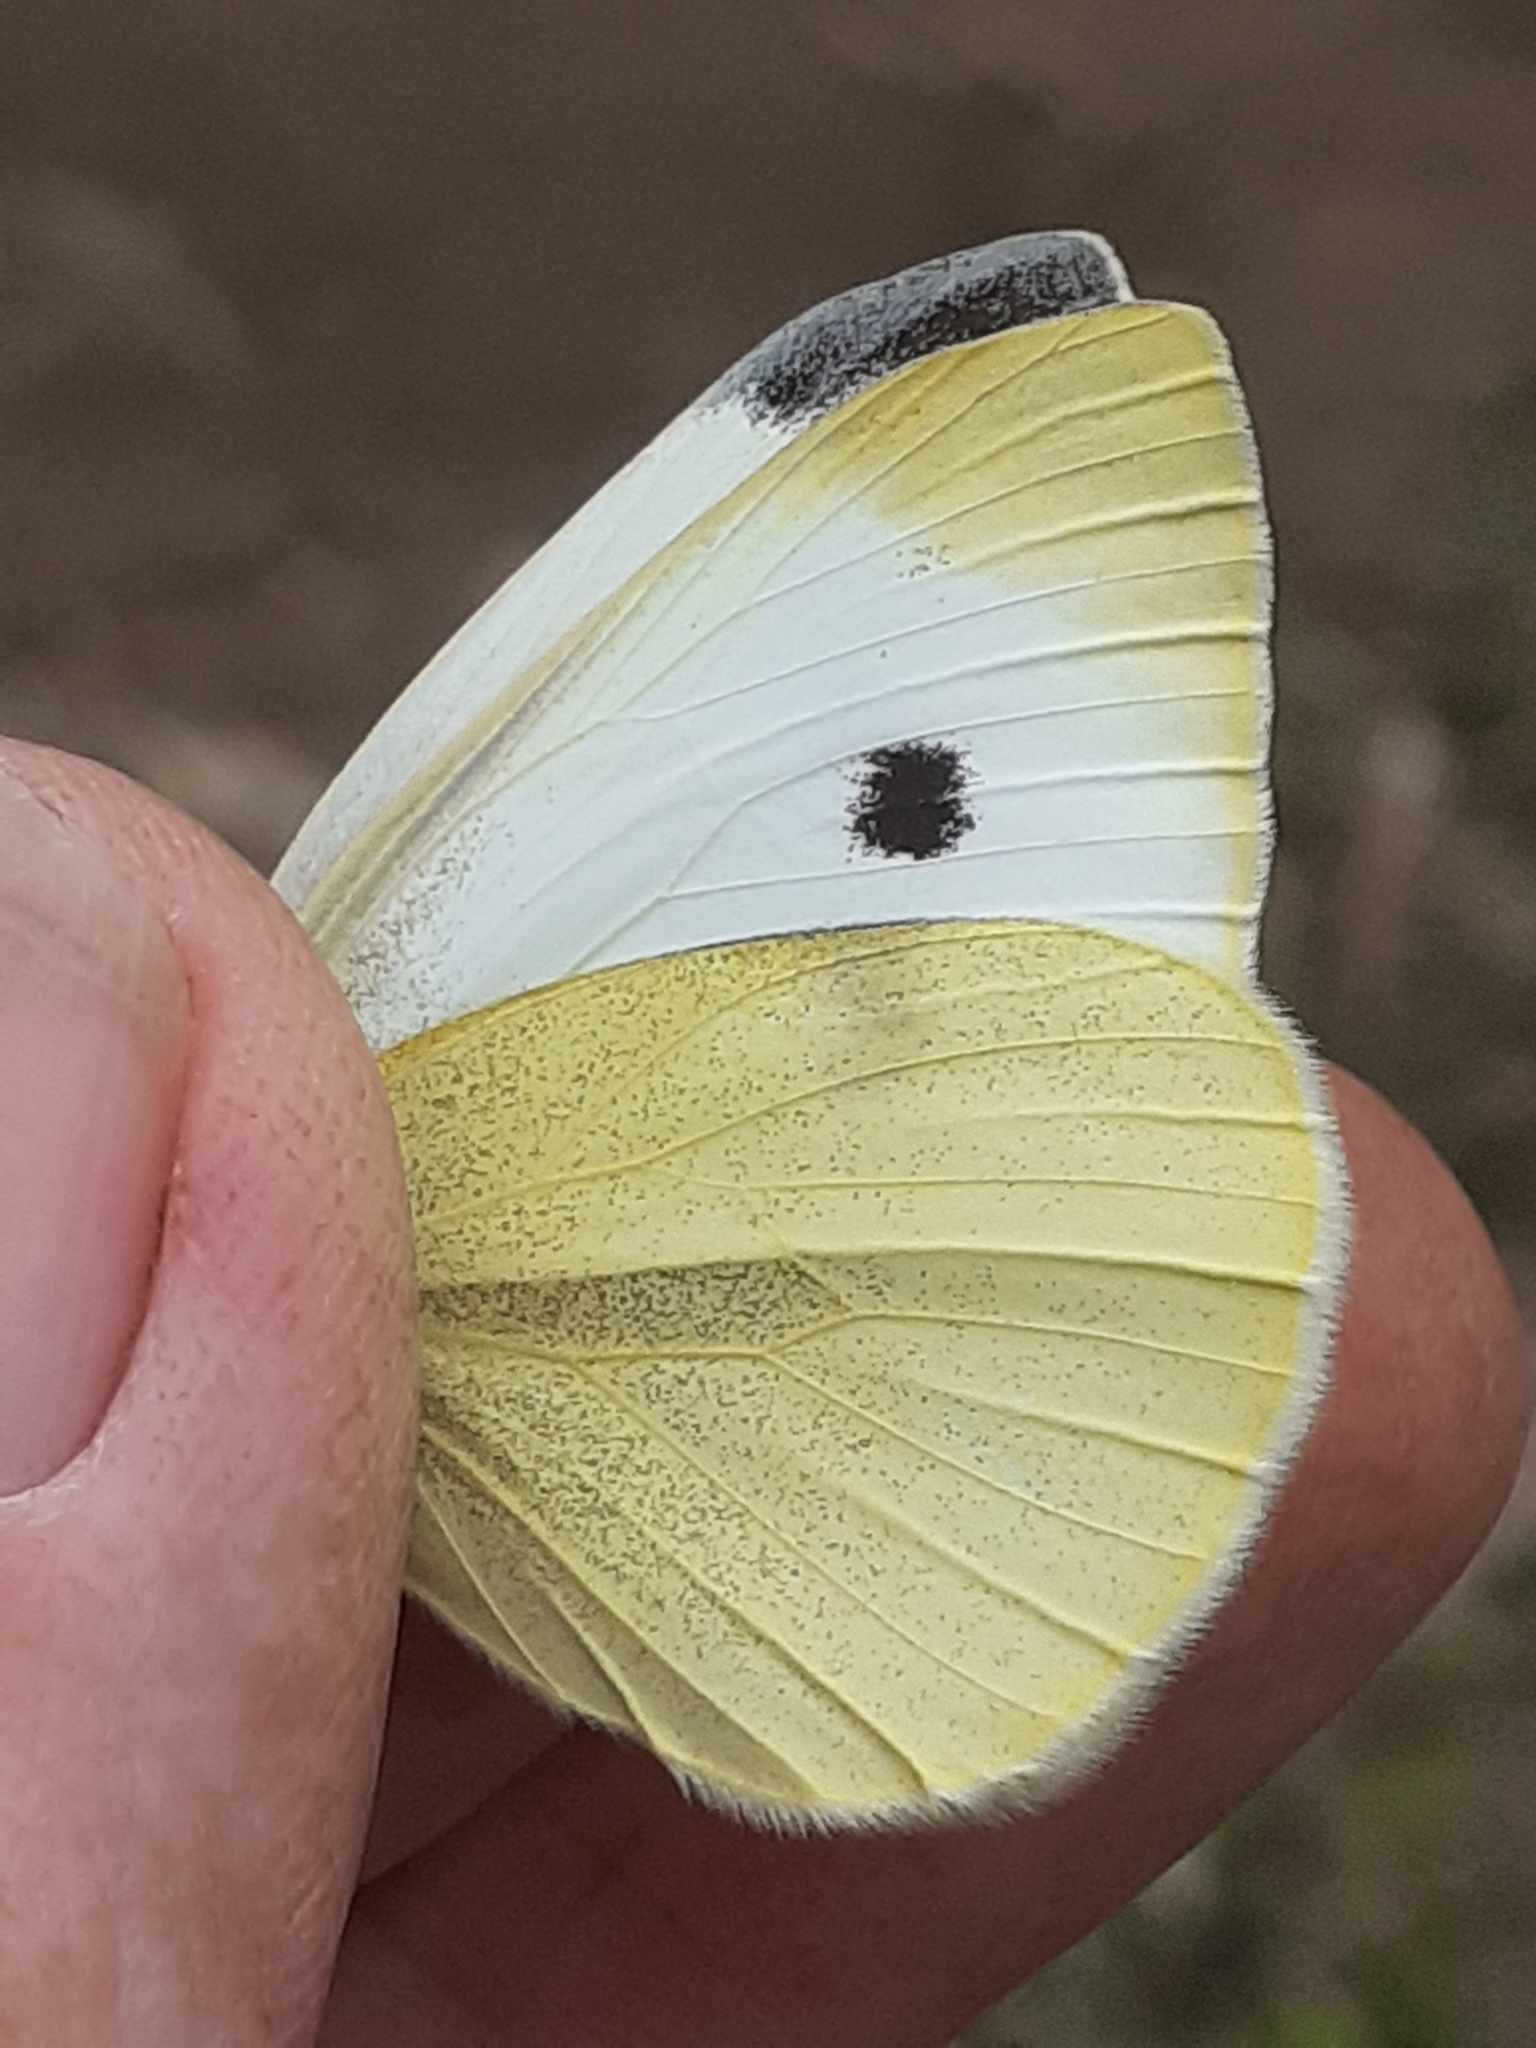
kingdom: Animalia
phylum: Arthropoda
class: Insecta
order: Lepidoptera
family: Pieridae
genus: Pieris
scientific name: Pieris cheiranthi
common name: Canary islands large white
